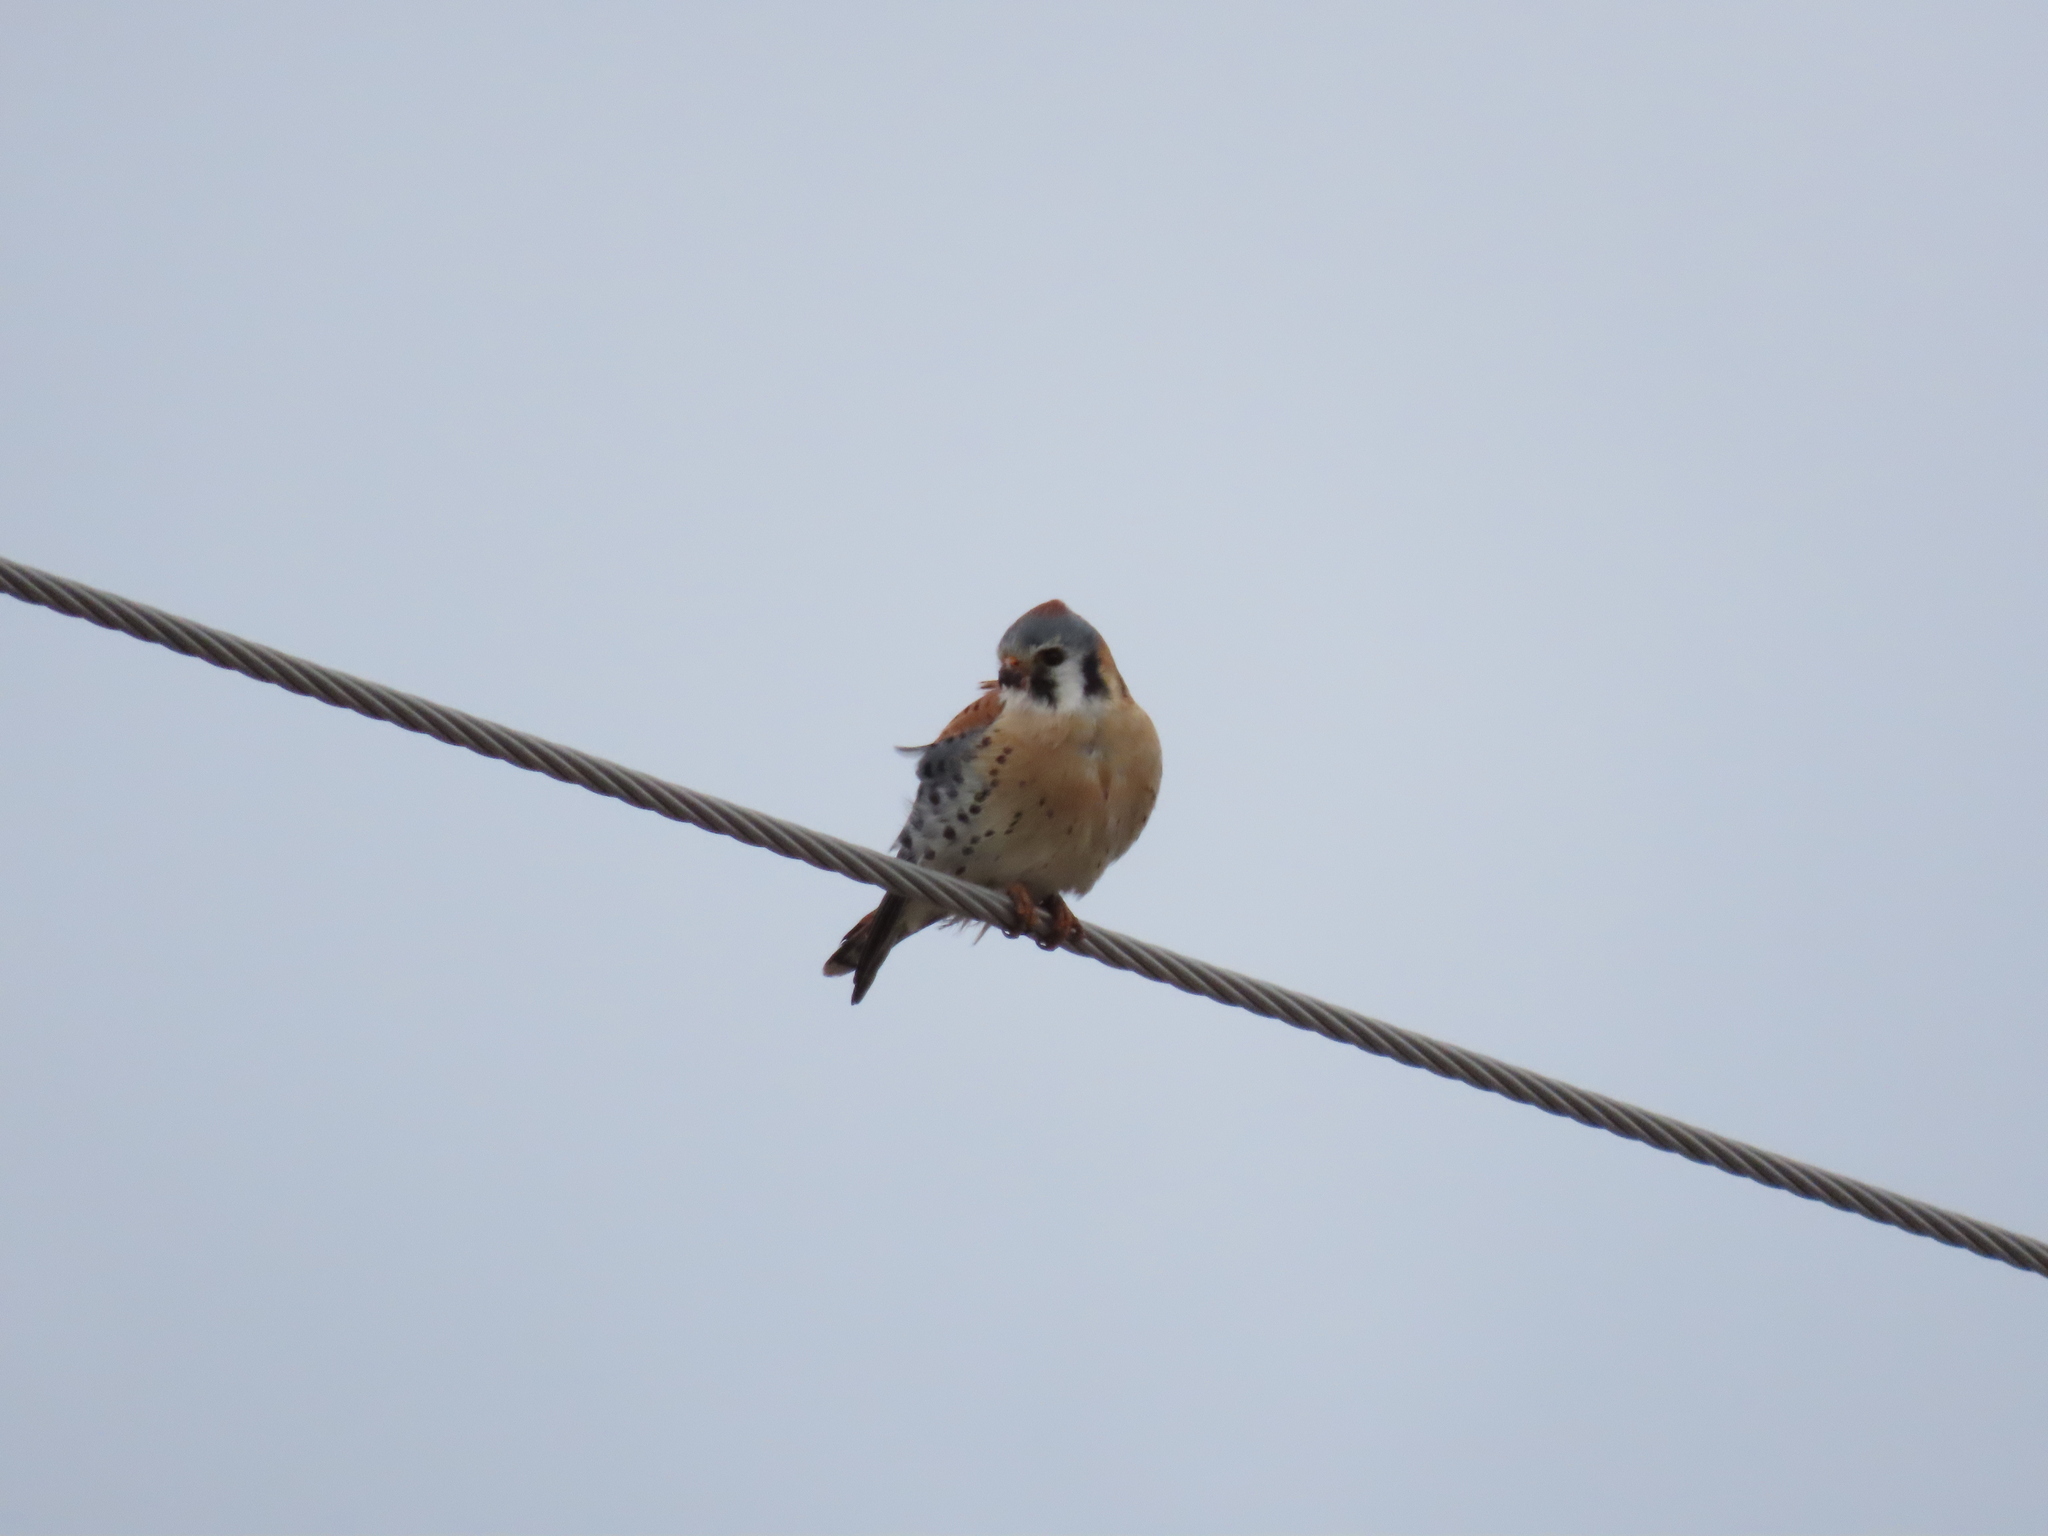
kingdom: Animalia
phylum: Chordata
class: Aves
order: Falconiformes
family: Falconidae
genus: Falco
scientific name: Falco sparverius
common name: American kestrel
